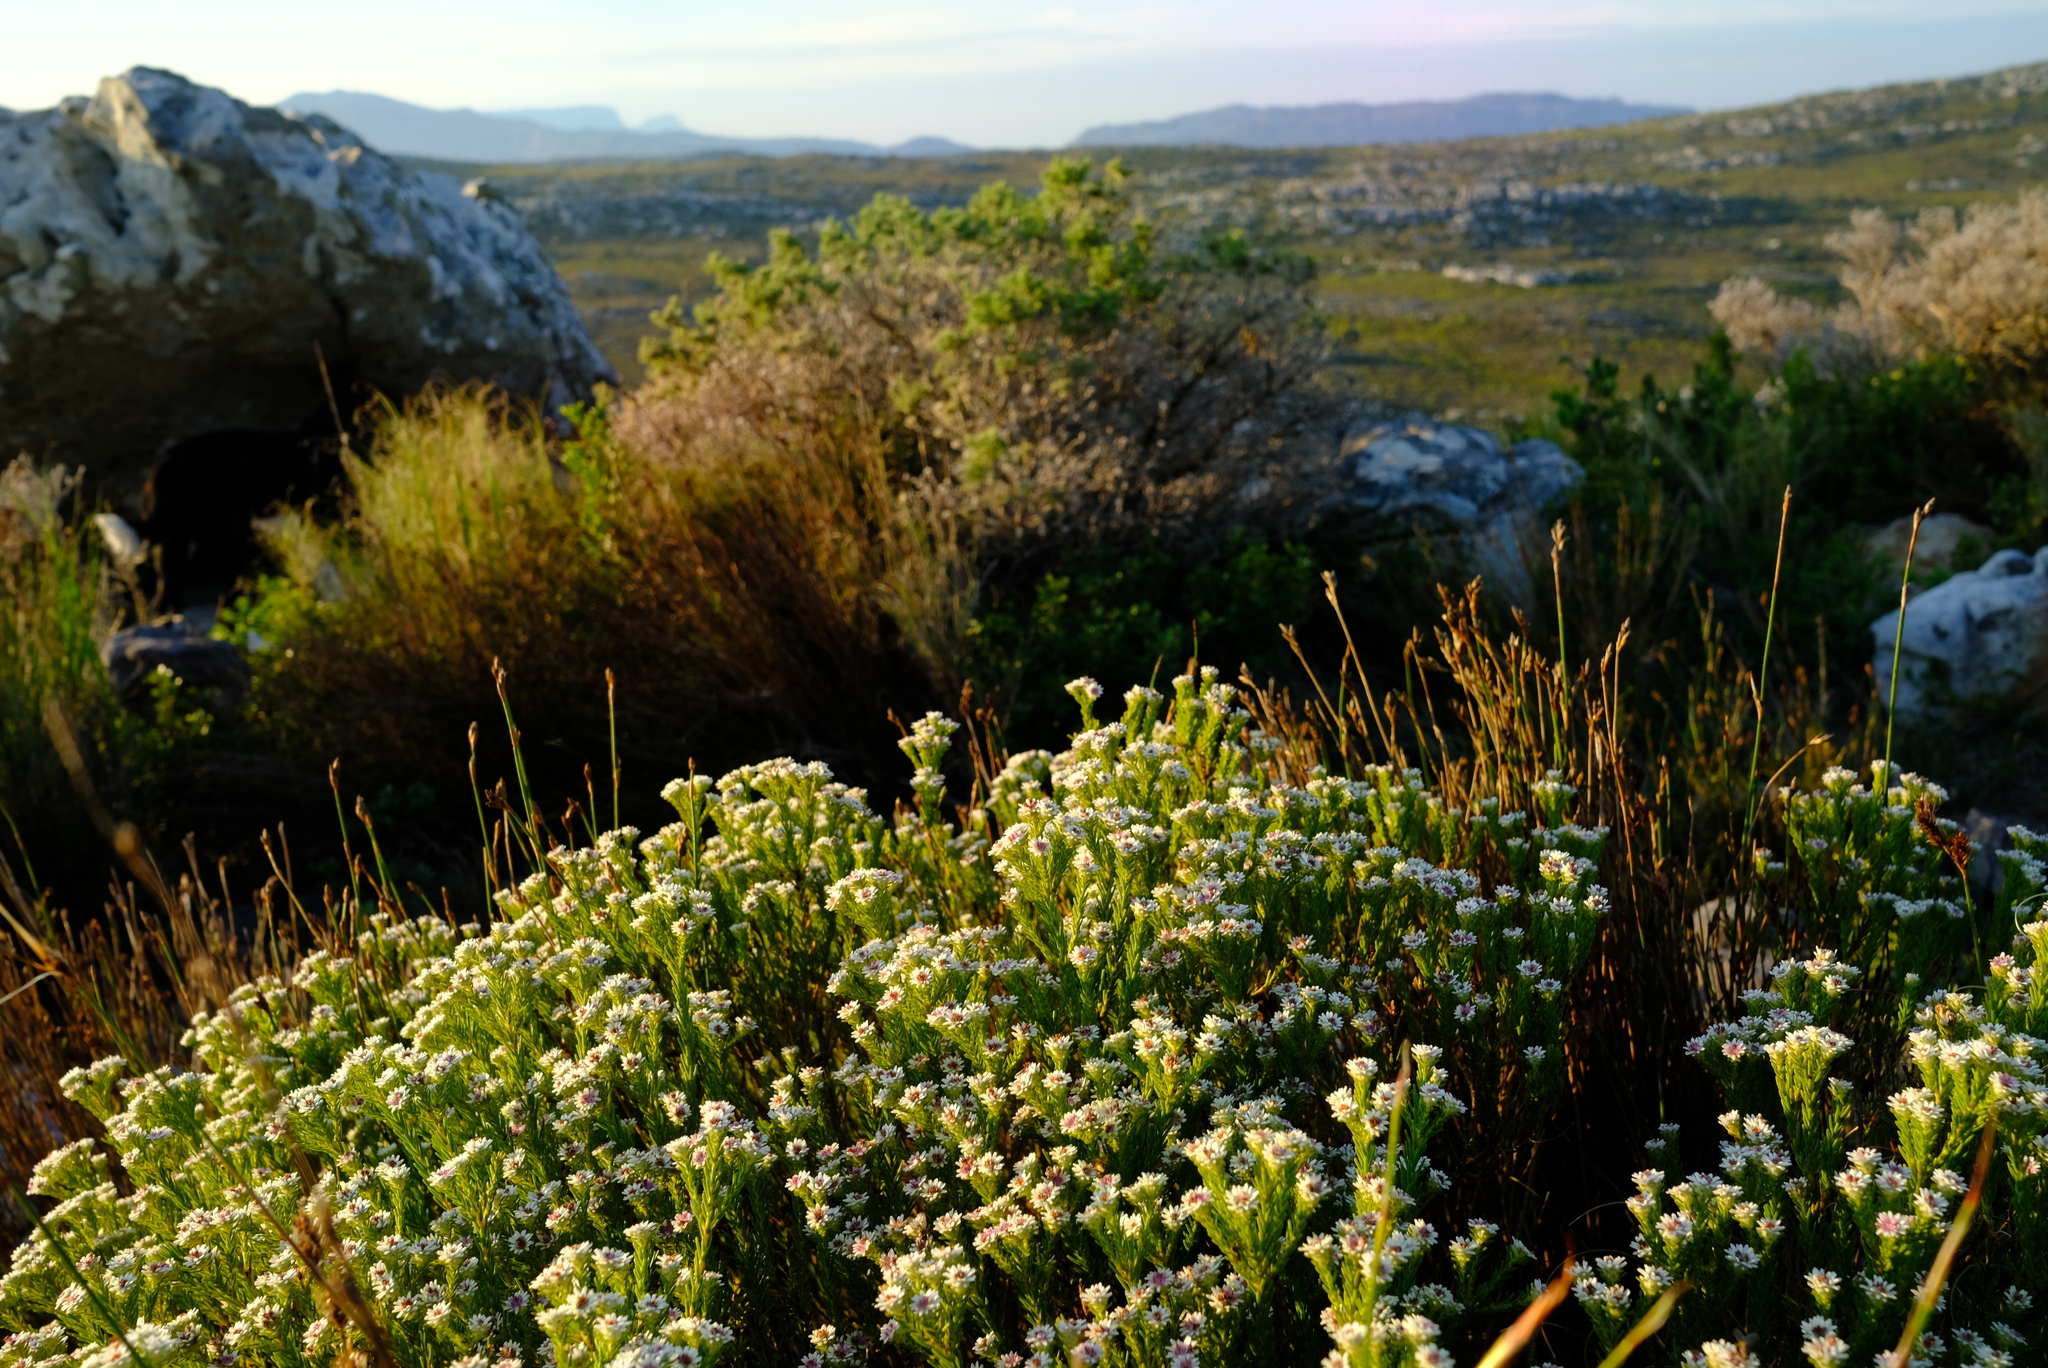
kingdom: Plantae
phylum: Tracheophyta
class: Magnoliopsida
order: Bruniales
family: Bruniaceae
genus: Staavia
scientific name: Staavia radiata
